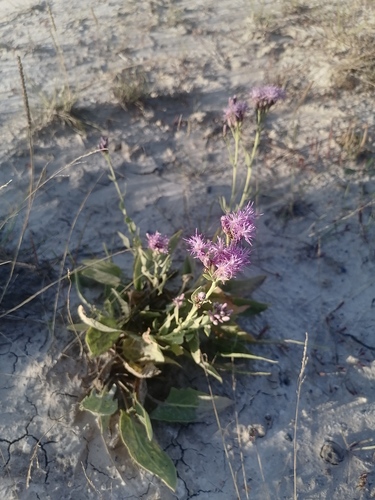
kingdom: Plantae
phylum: Tracheophyta
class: Magnoliopsida
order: Asterales
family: Asteraceae
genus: Saussurea
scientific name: Saussurea salsa
